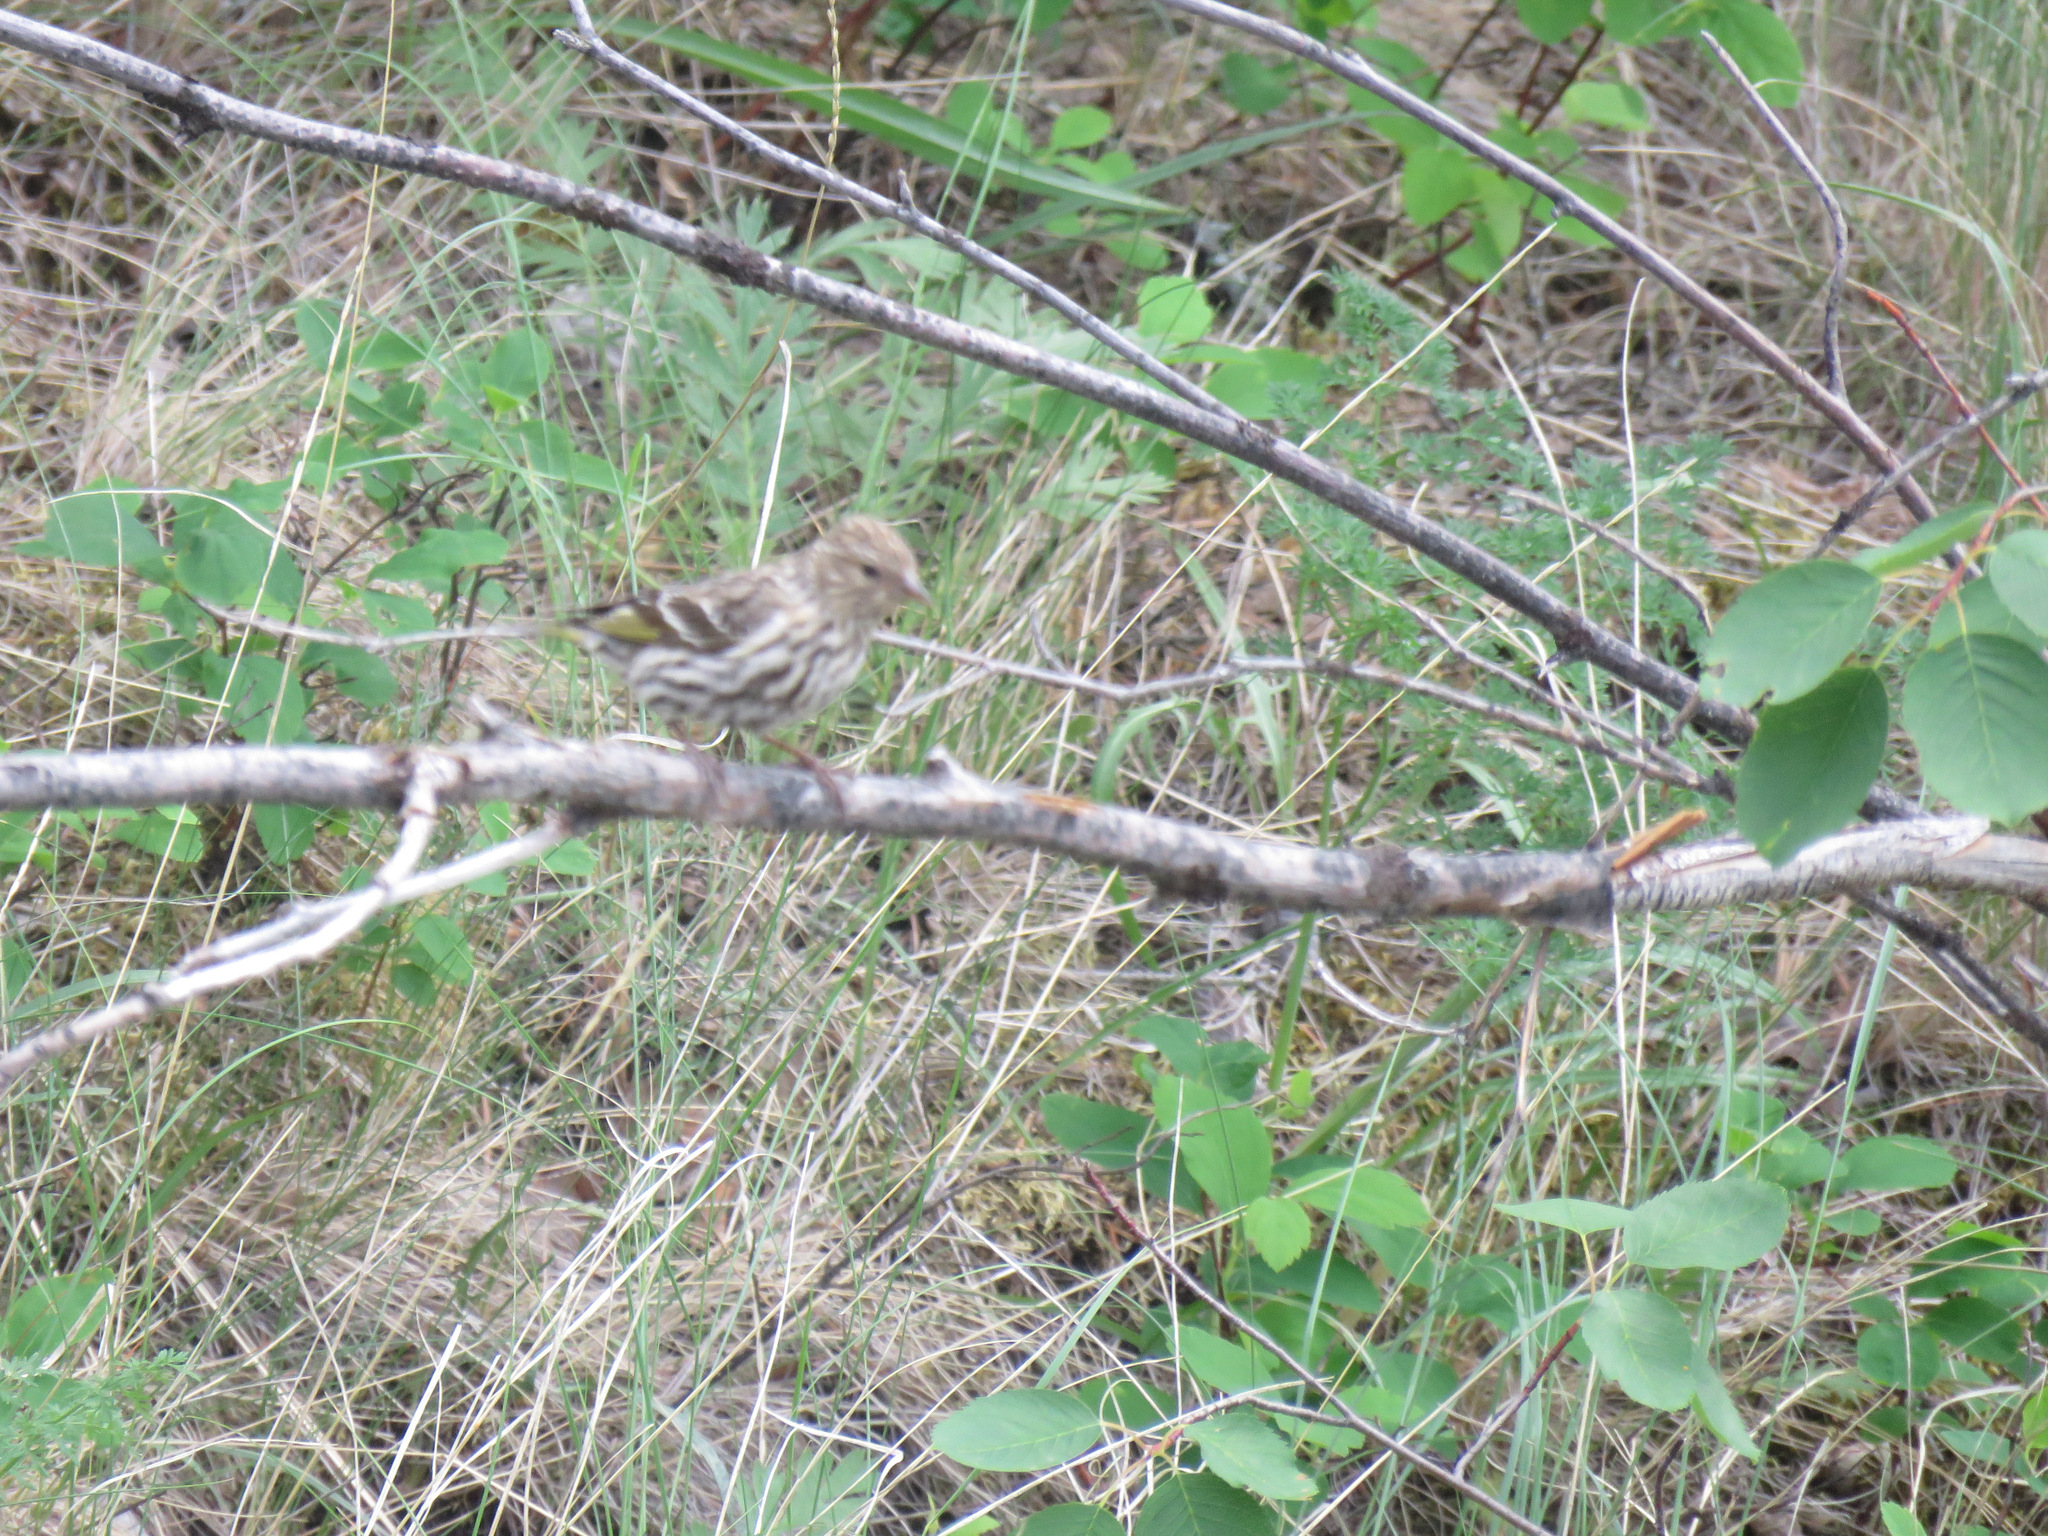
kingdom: Animalia
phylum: Chordata
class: Aves
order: Passeriformes
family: Fringillidae
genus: Spinus
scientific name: Spinus pinus
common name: Pine siskin
